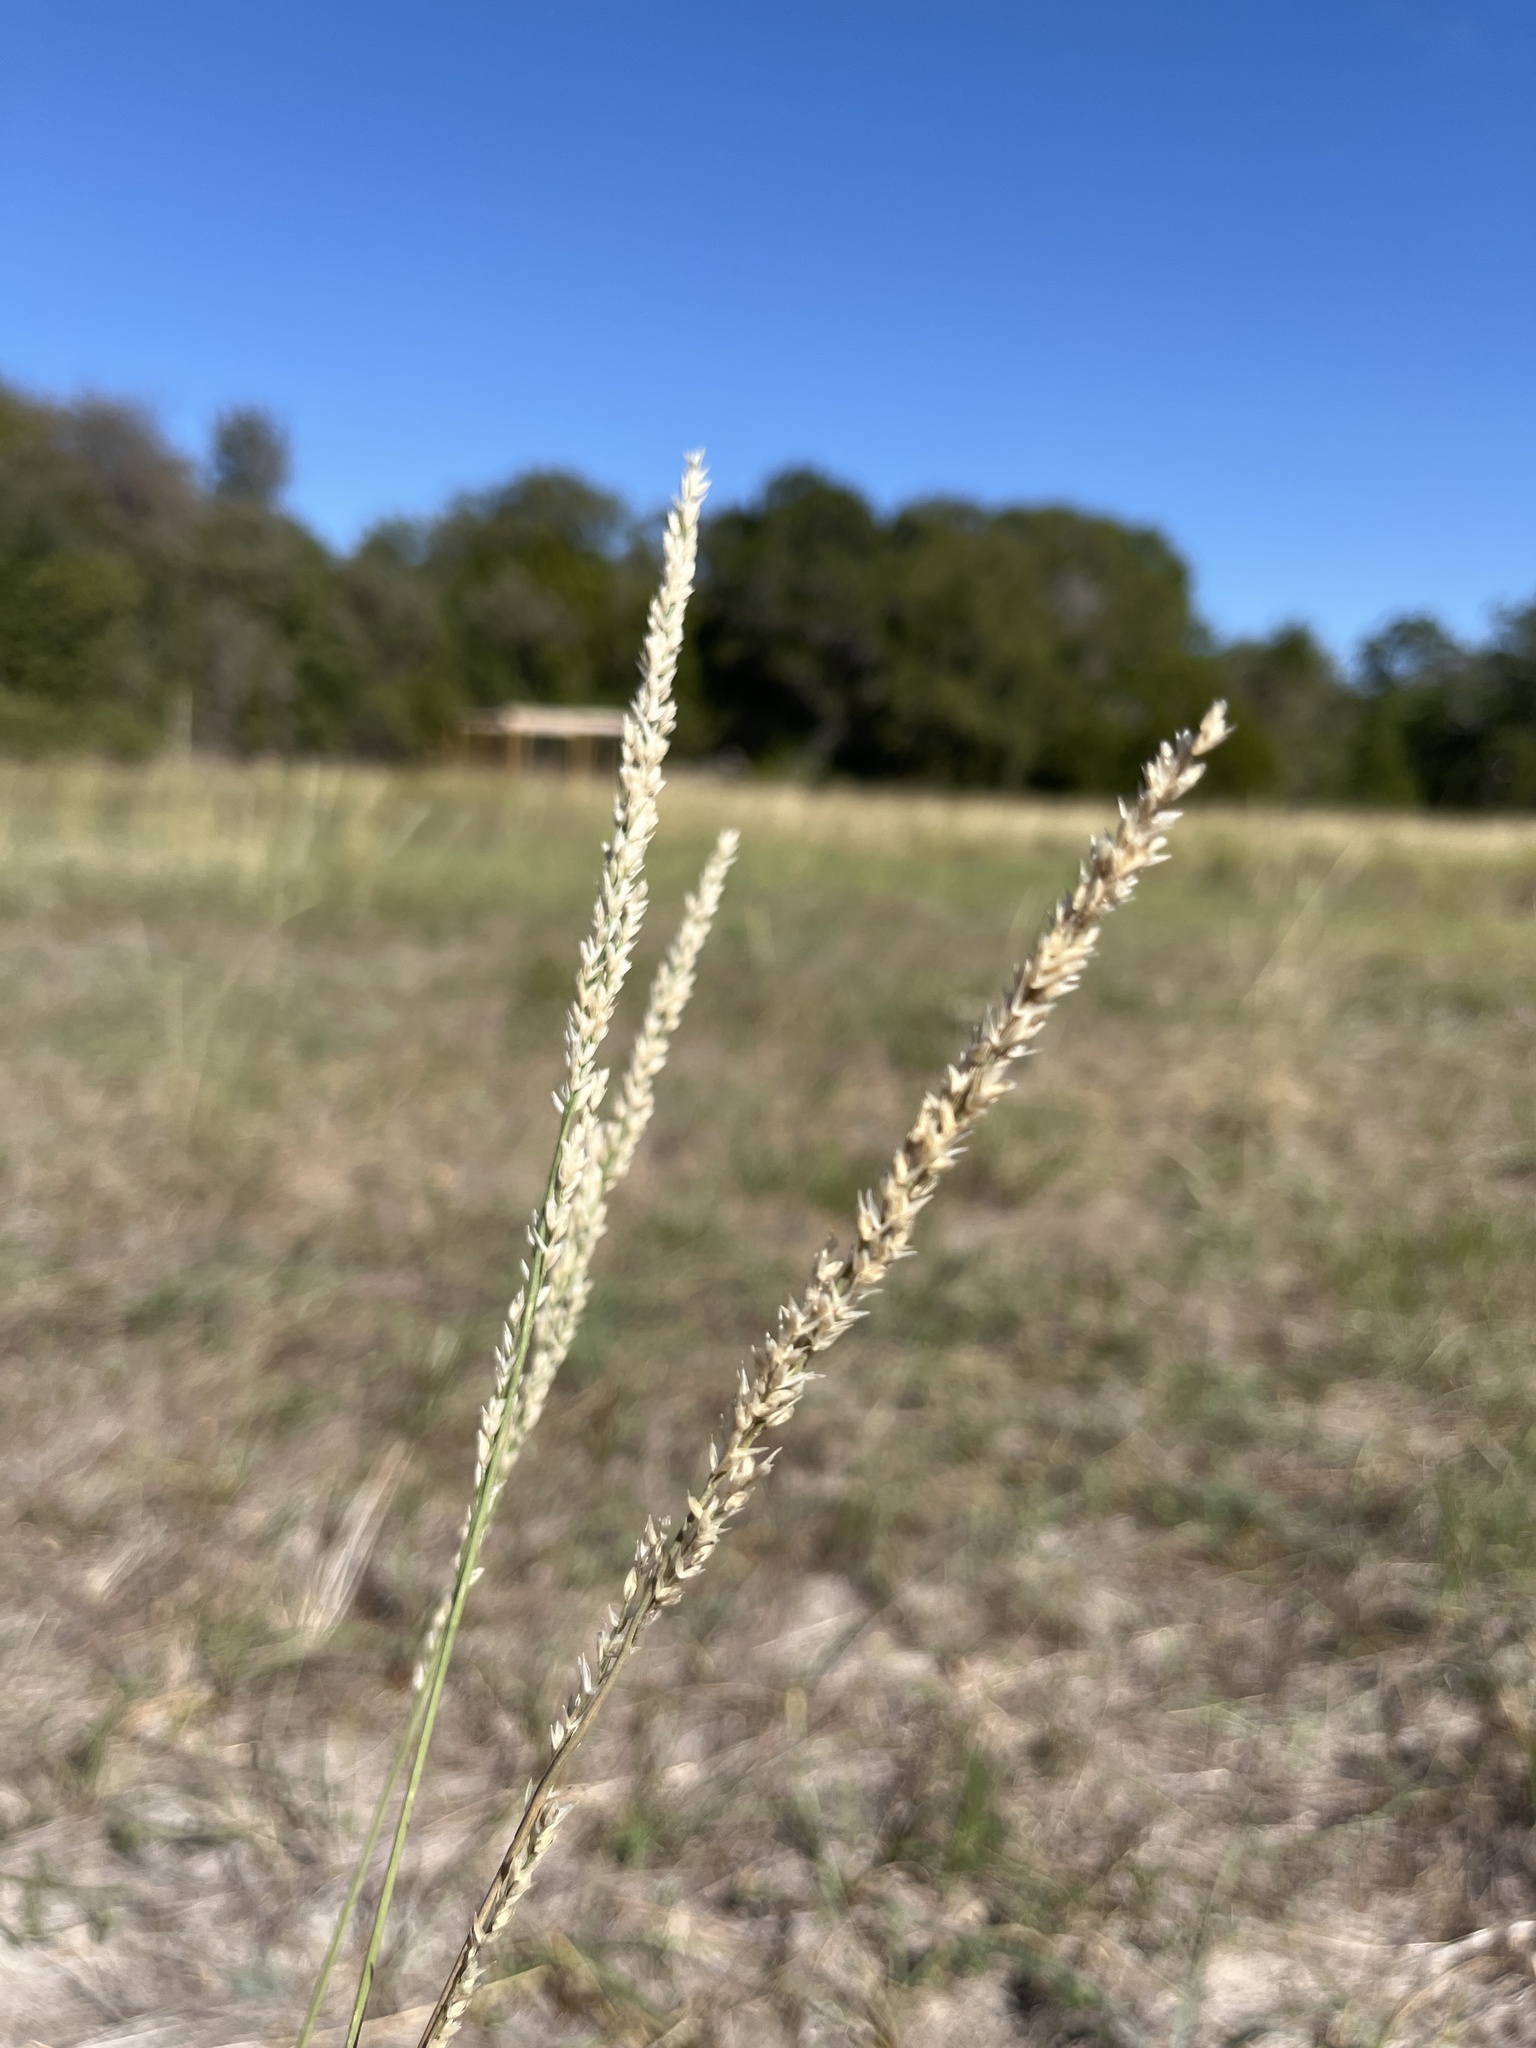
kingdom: Plantae
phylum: Tracheophyta
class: Liliopsida
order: Poales
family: Poaceae
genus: Tridens
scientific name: Tridens albescens
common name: White tridens
